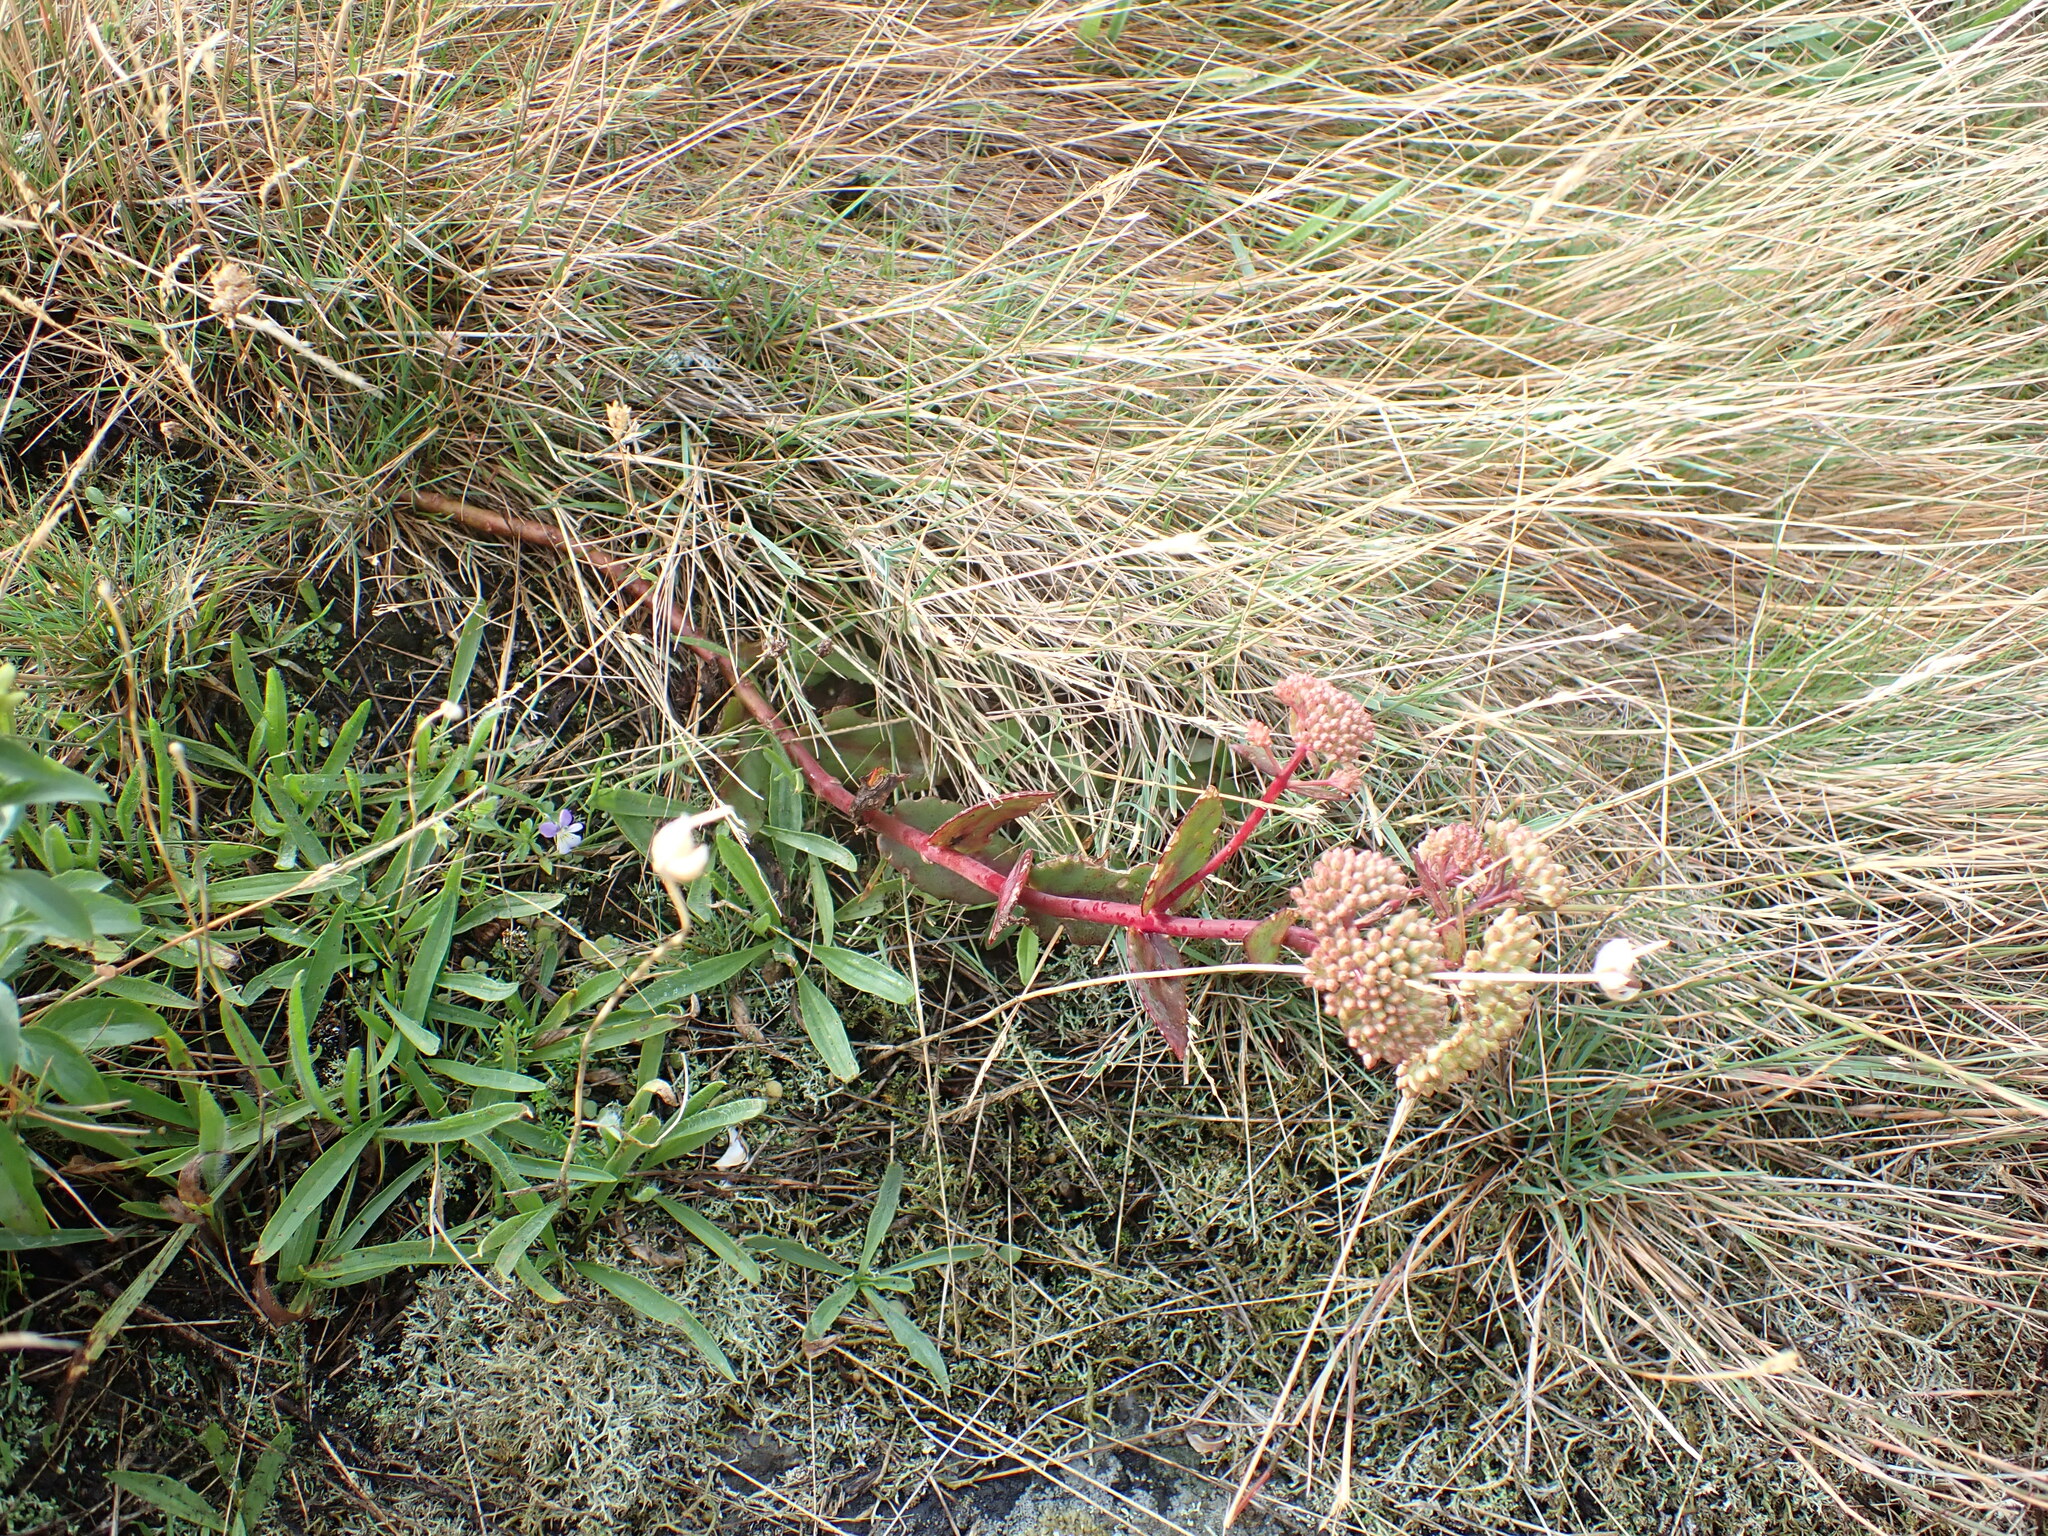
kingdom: Plantae
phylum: Tracheophyta
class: Magnoliopsida
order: Saxifragales
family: Crassulaceae
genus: Hylotelephium
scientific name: Hylotelephium maximum
